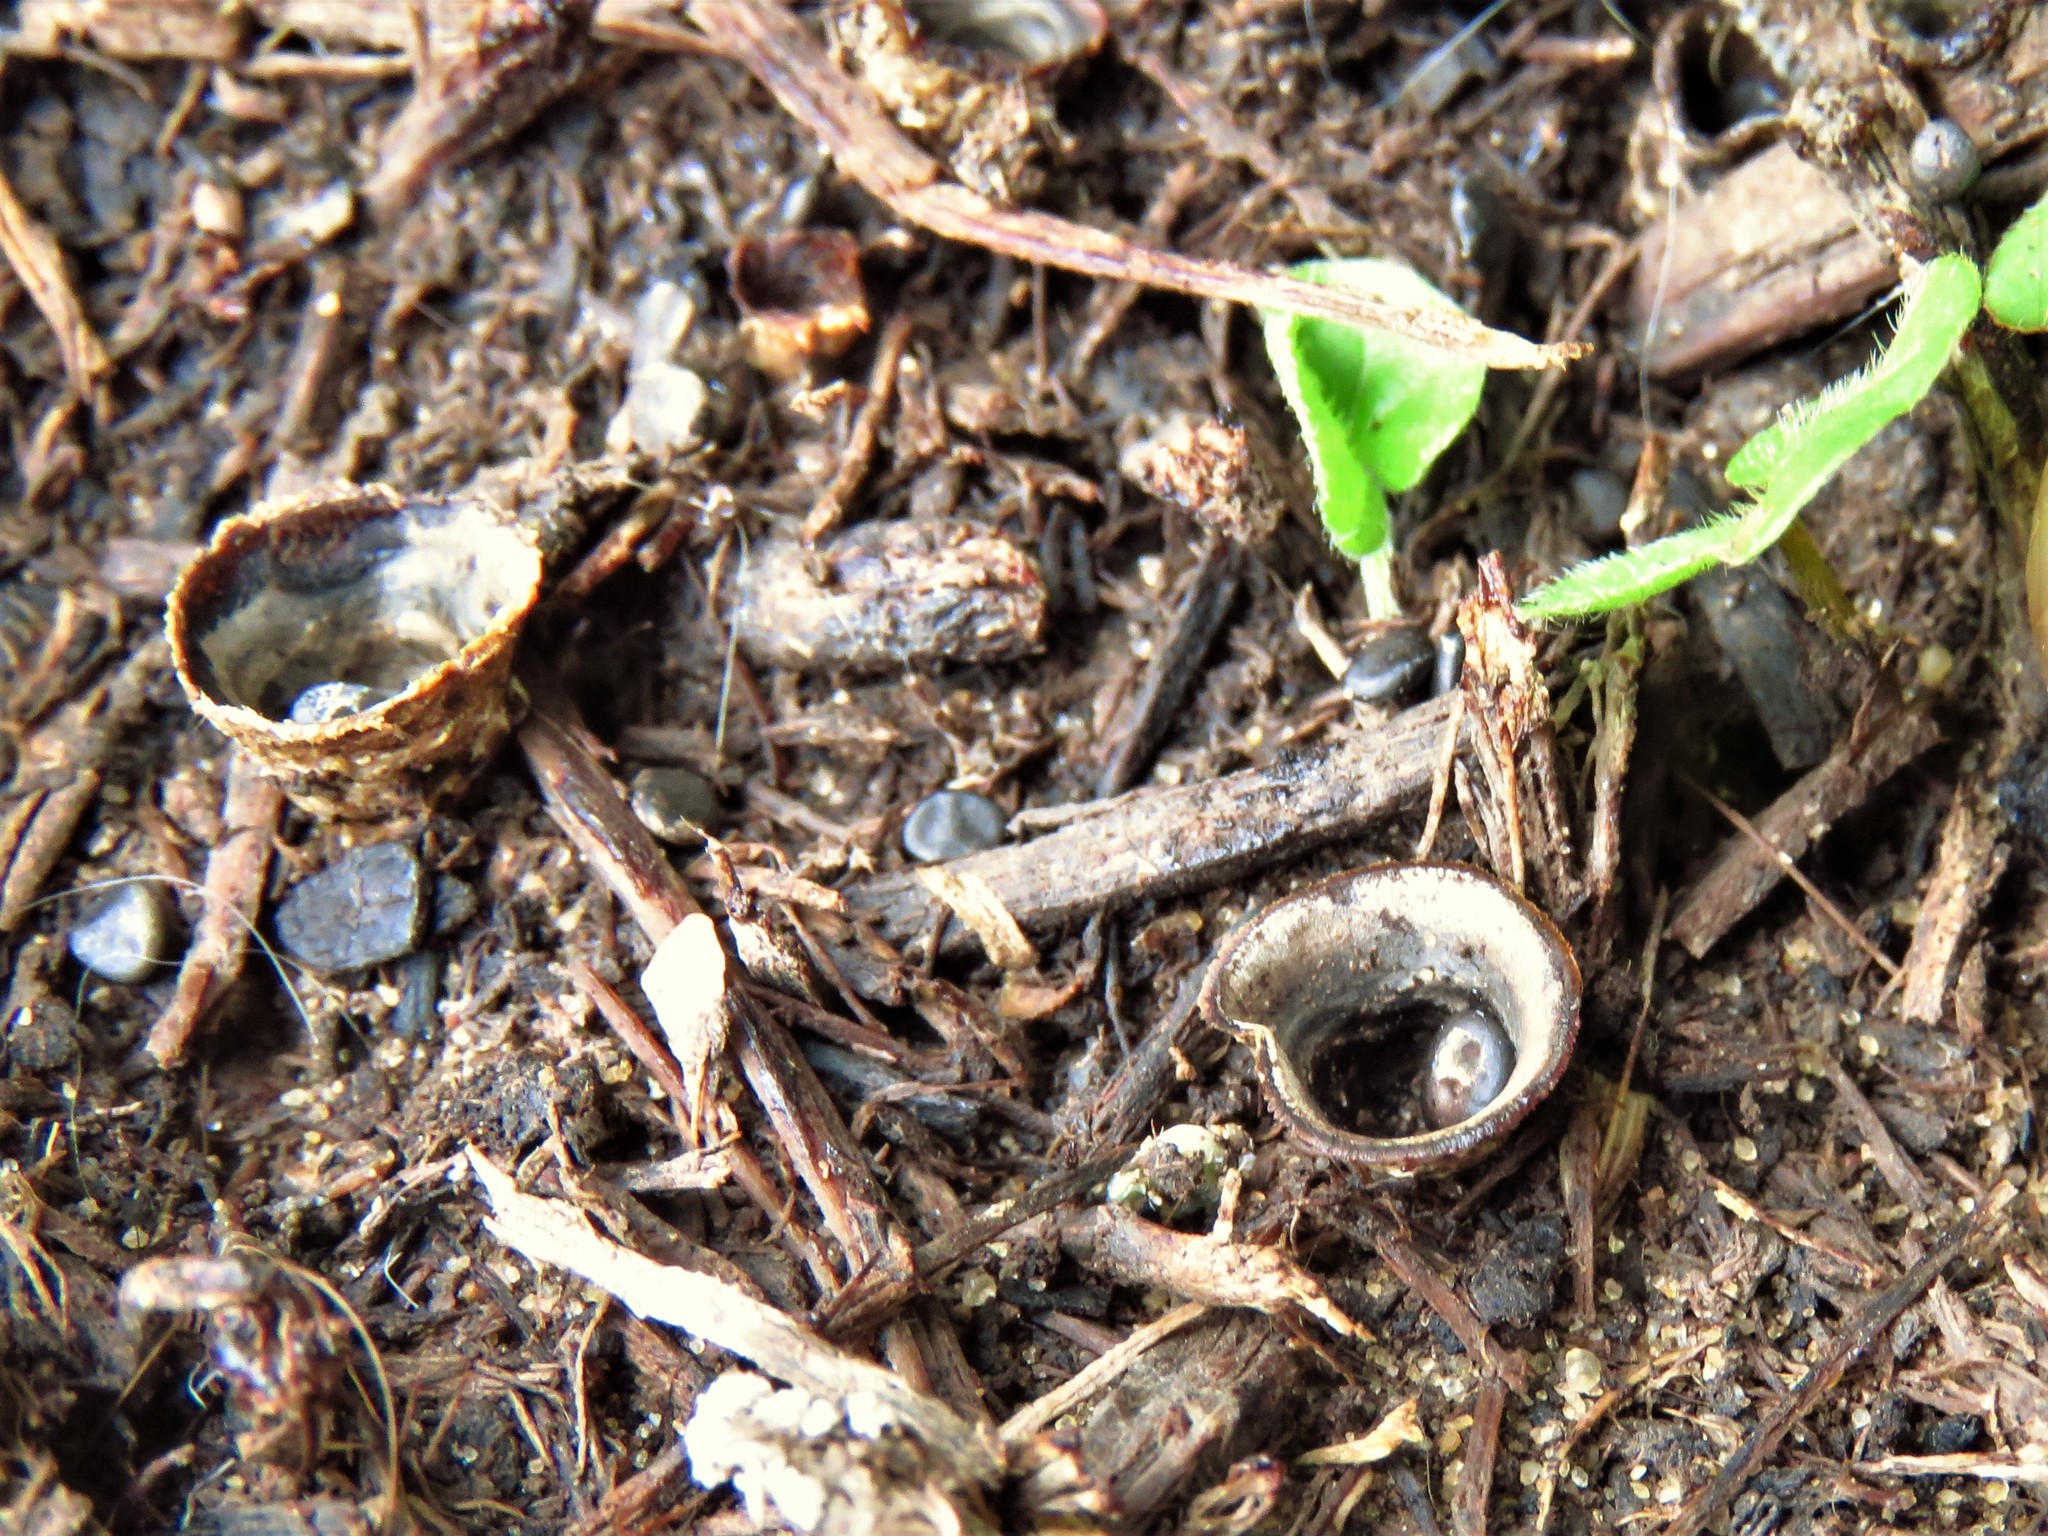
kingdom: Fungi
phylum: Basidiomycota
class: Agaricomycetes
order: Agaricales
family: Agaricaceae
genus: Cyathus
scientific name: Cyathus stercoreus
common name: Dung bird's nest
